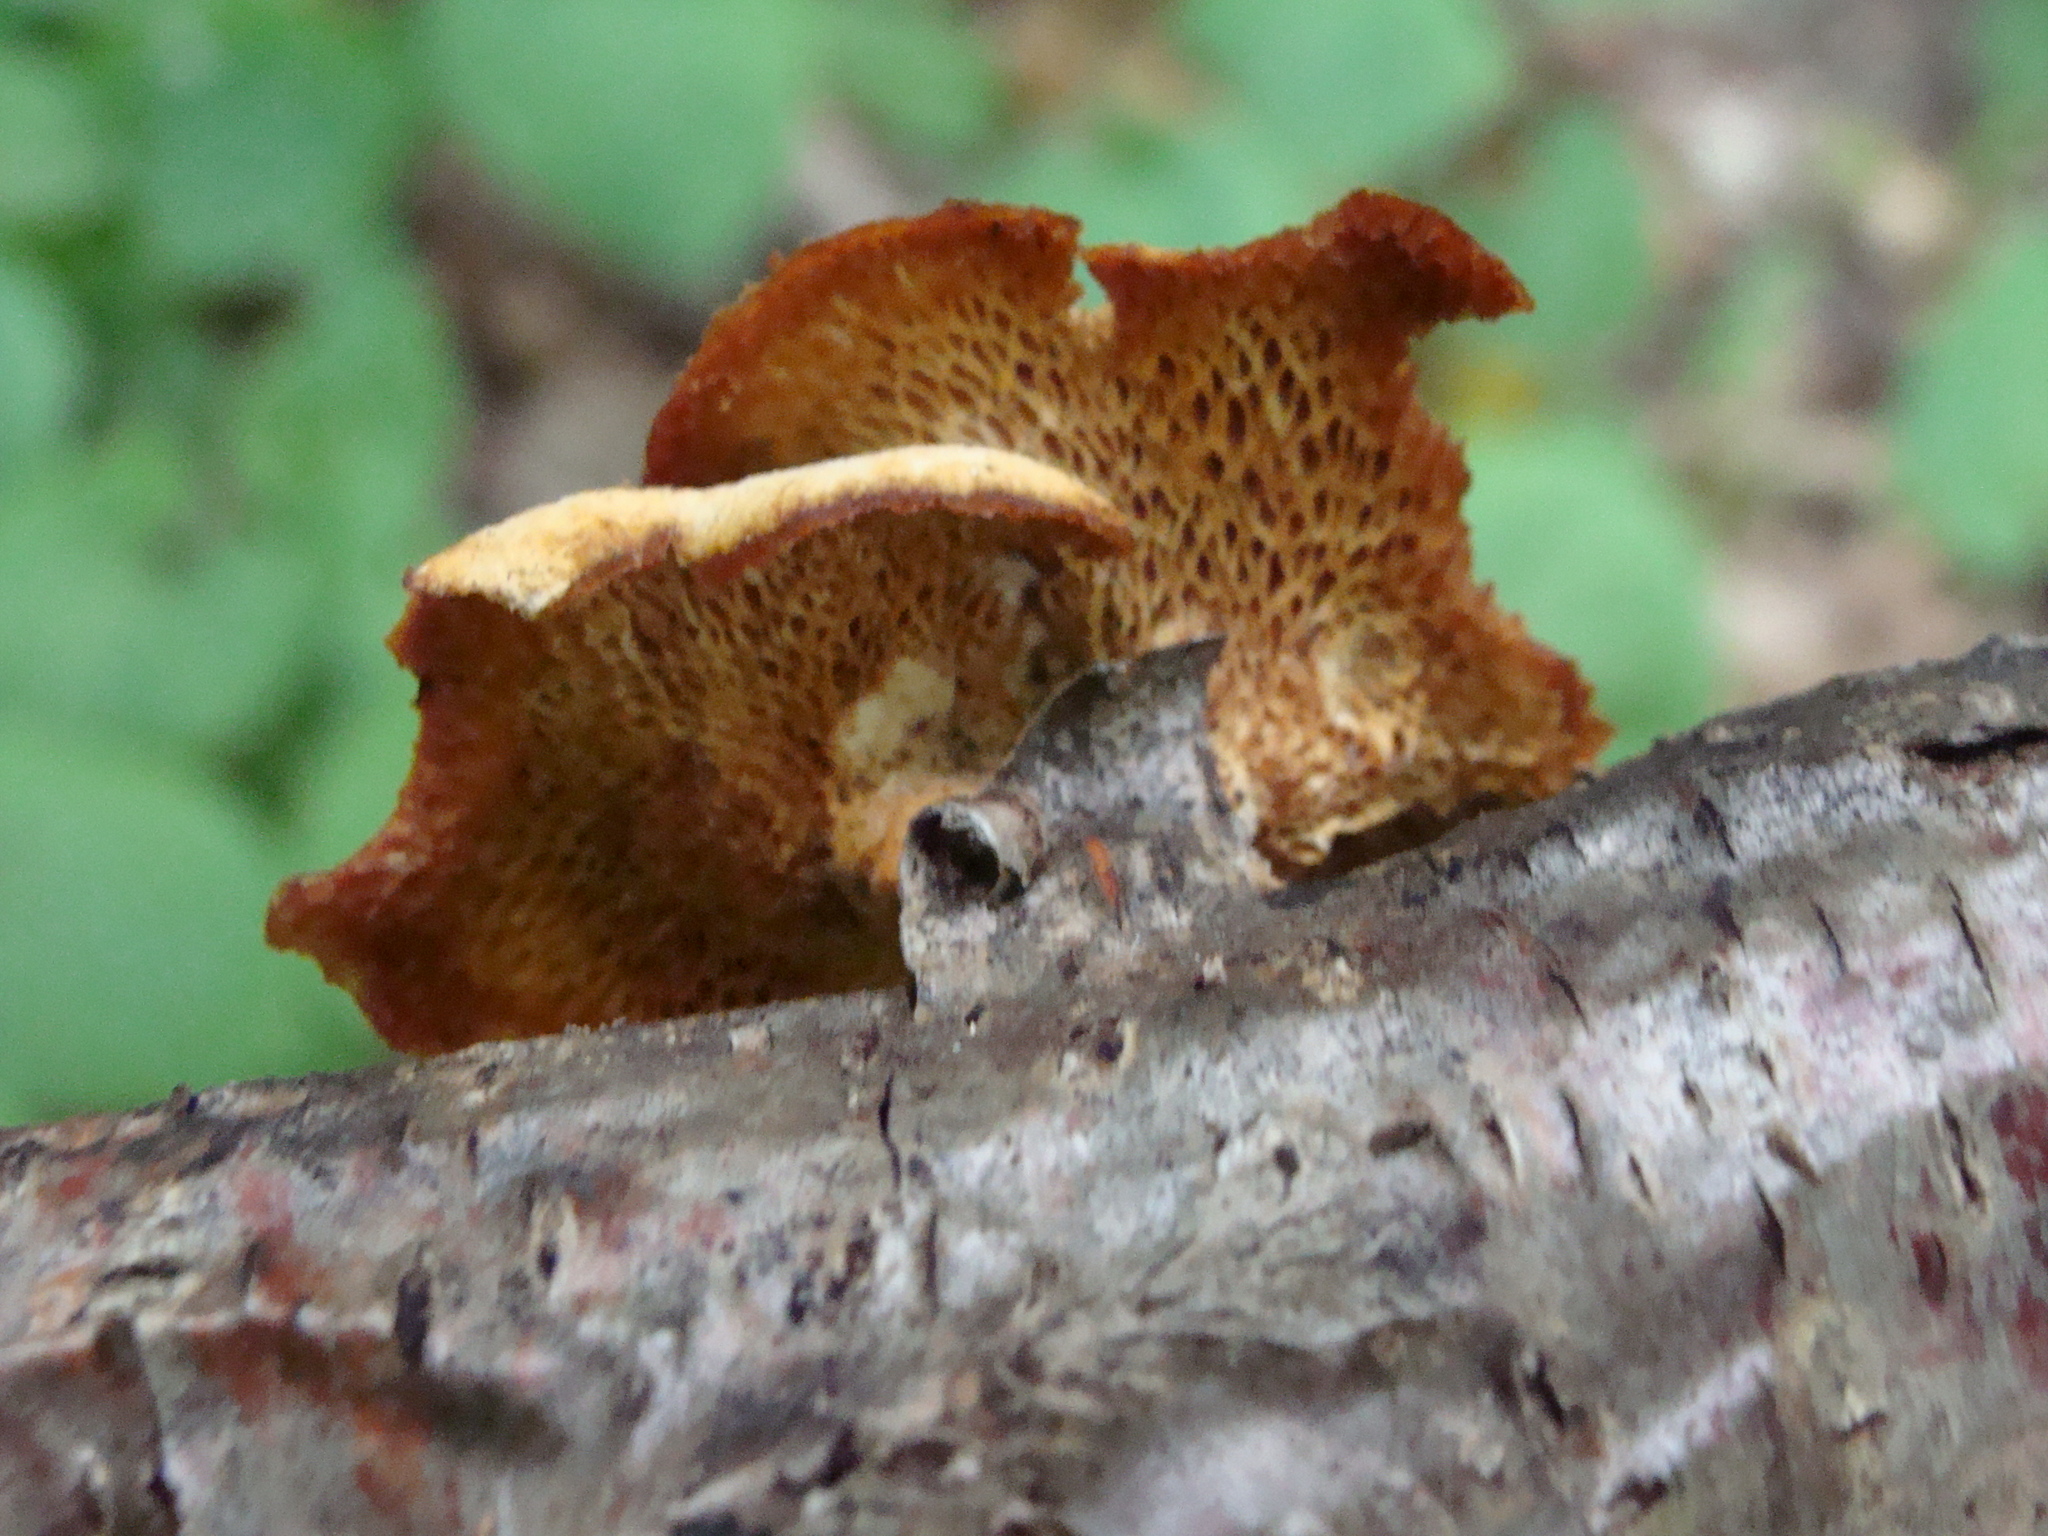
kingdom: Fungi
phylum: Basidiomycota
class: Agaricomycetes
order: Polyporales
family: Polyporaceae
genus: Neofavolus
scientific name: Neofavolus alveolaris
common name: Hexagonal-pored polypore
